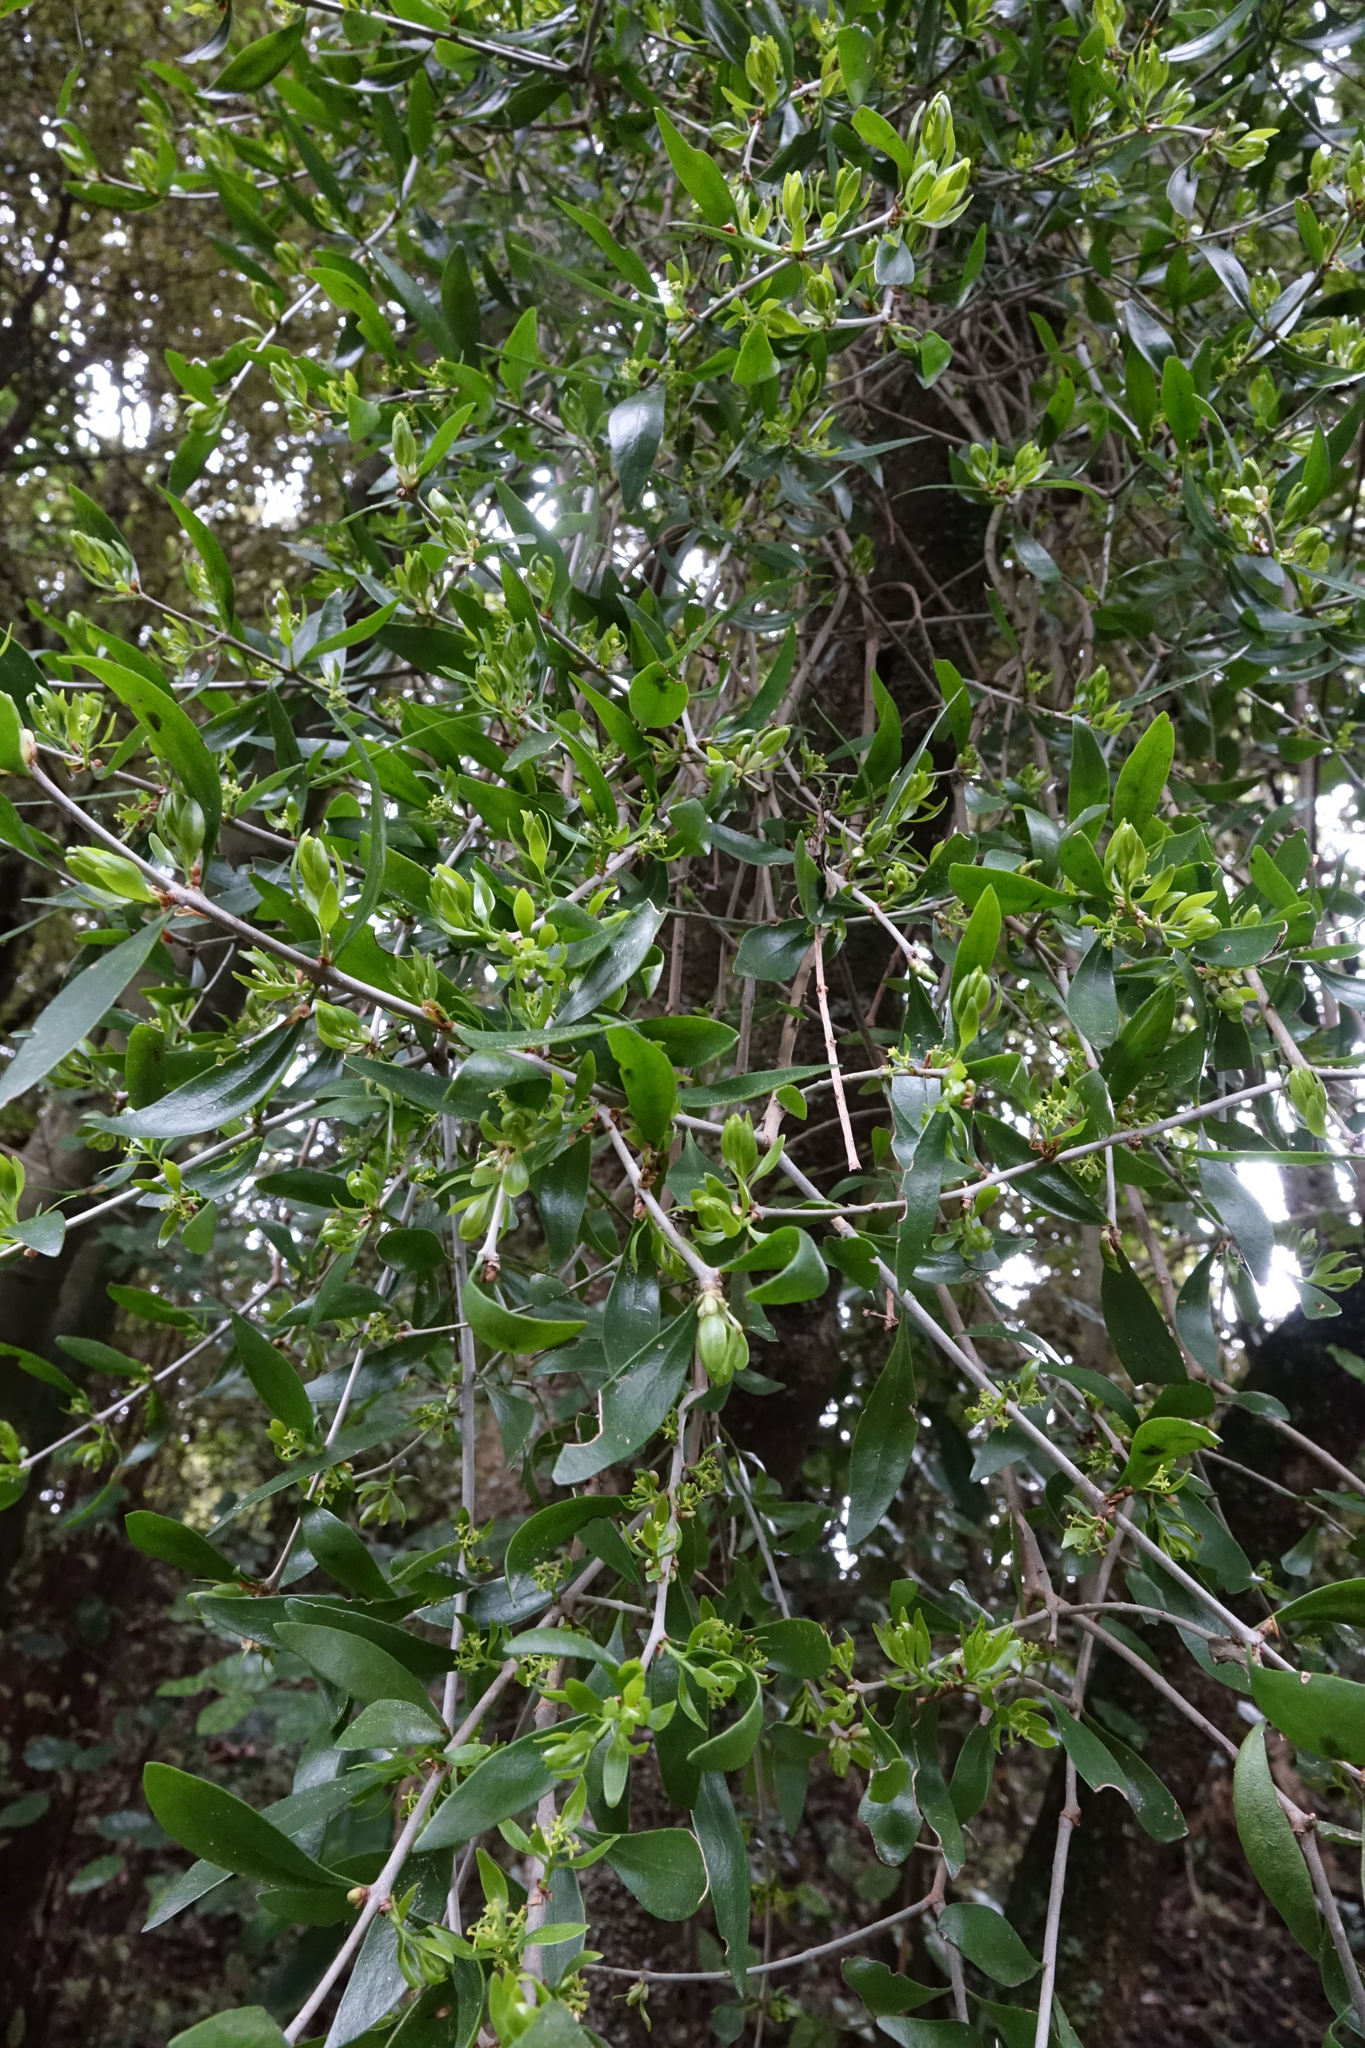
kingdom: Plantae
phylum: Tracheophyta
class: Magnoliopsida
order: Santalales
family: Loranthaceae
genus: Tupeia
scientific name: Tupeia antarctica
